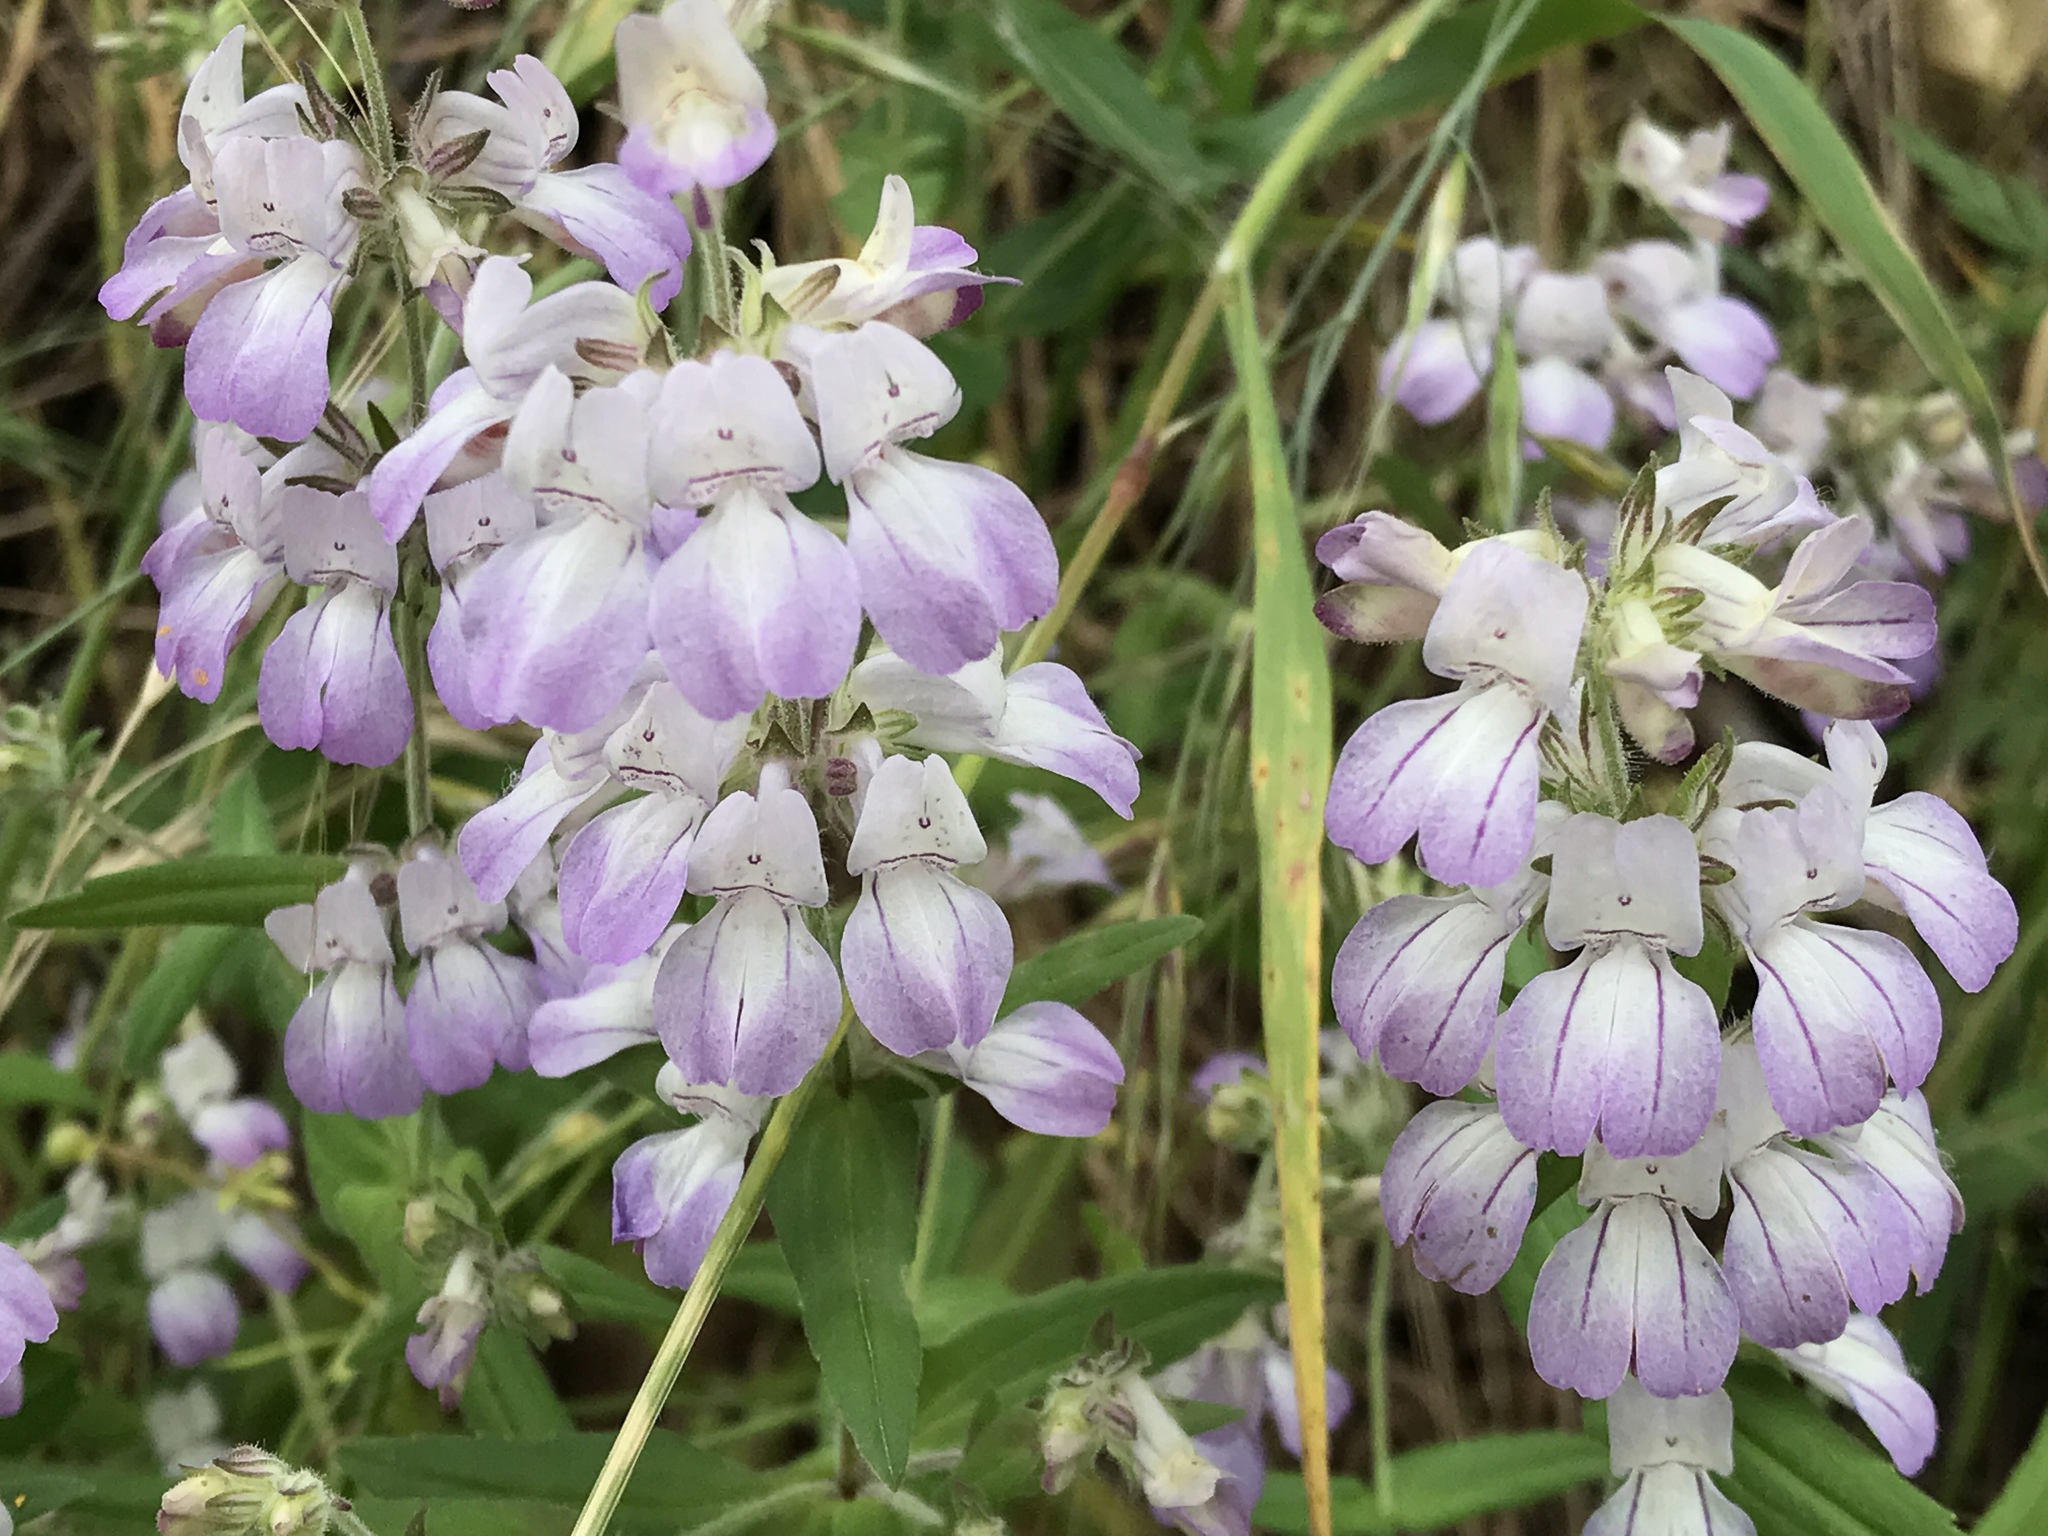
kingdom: Plantae
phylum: Tracheophyta
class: Magnoliopsida
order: Lamiales
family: Plantaginaceae
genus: Collinsia
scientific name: Collinsia heterophylla
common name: Chinese-houses
